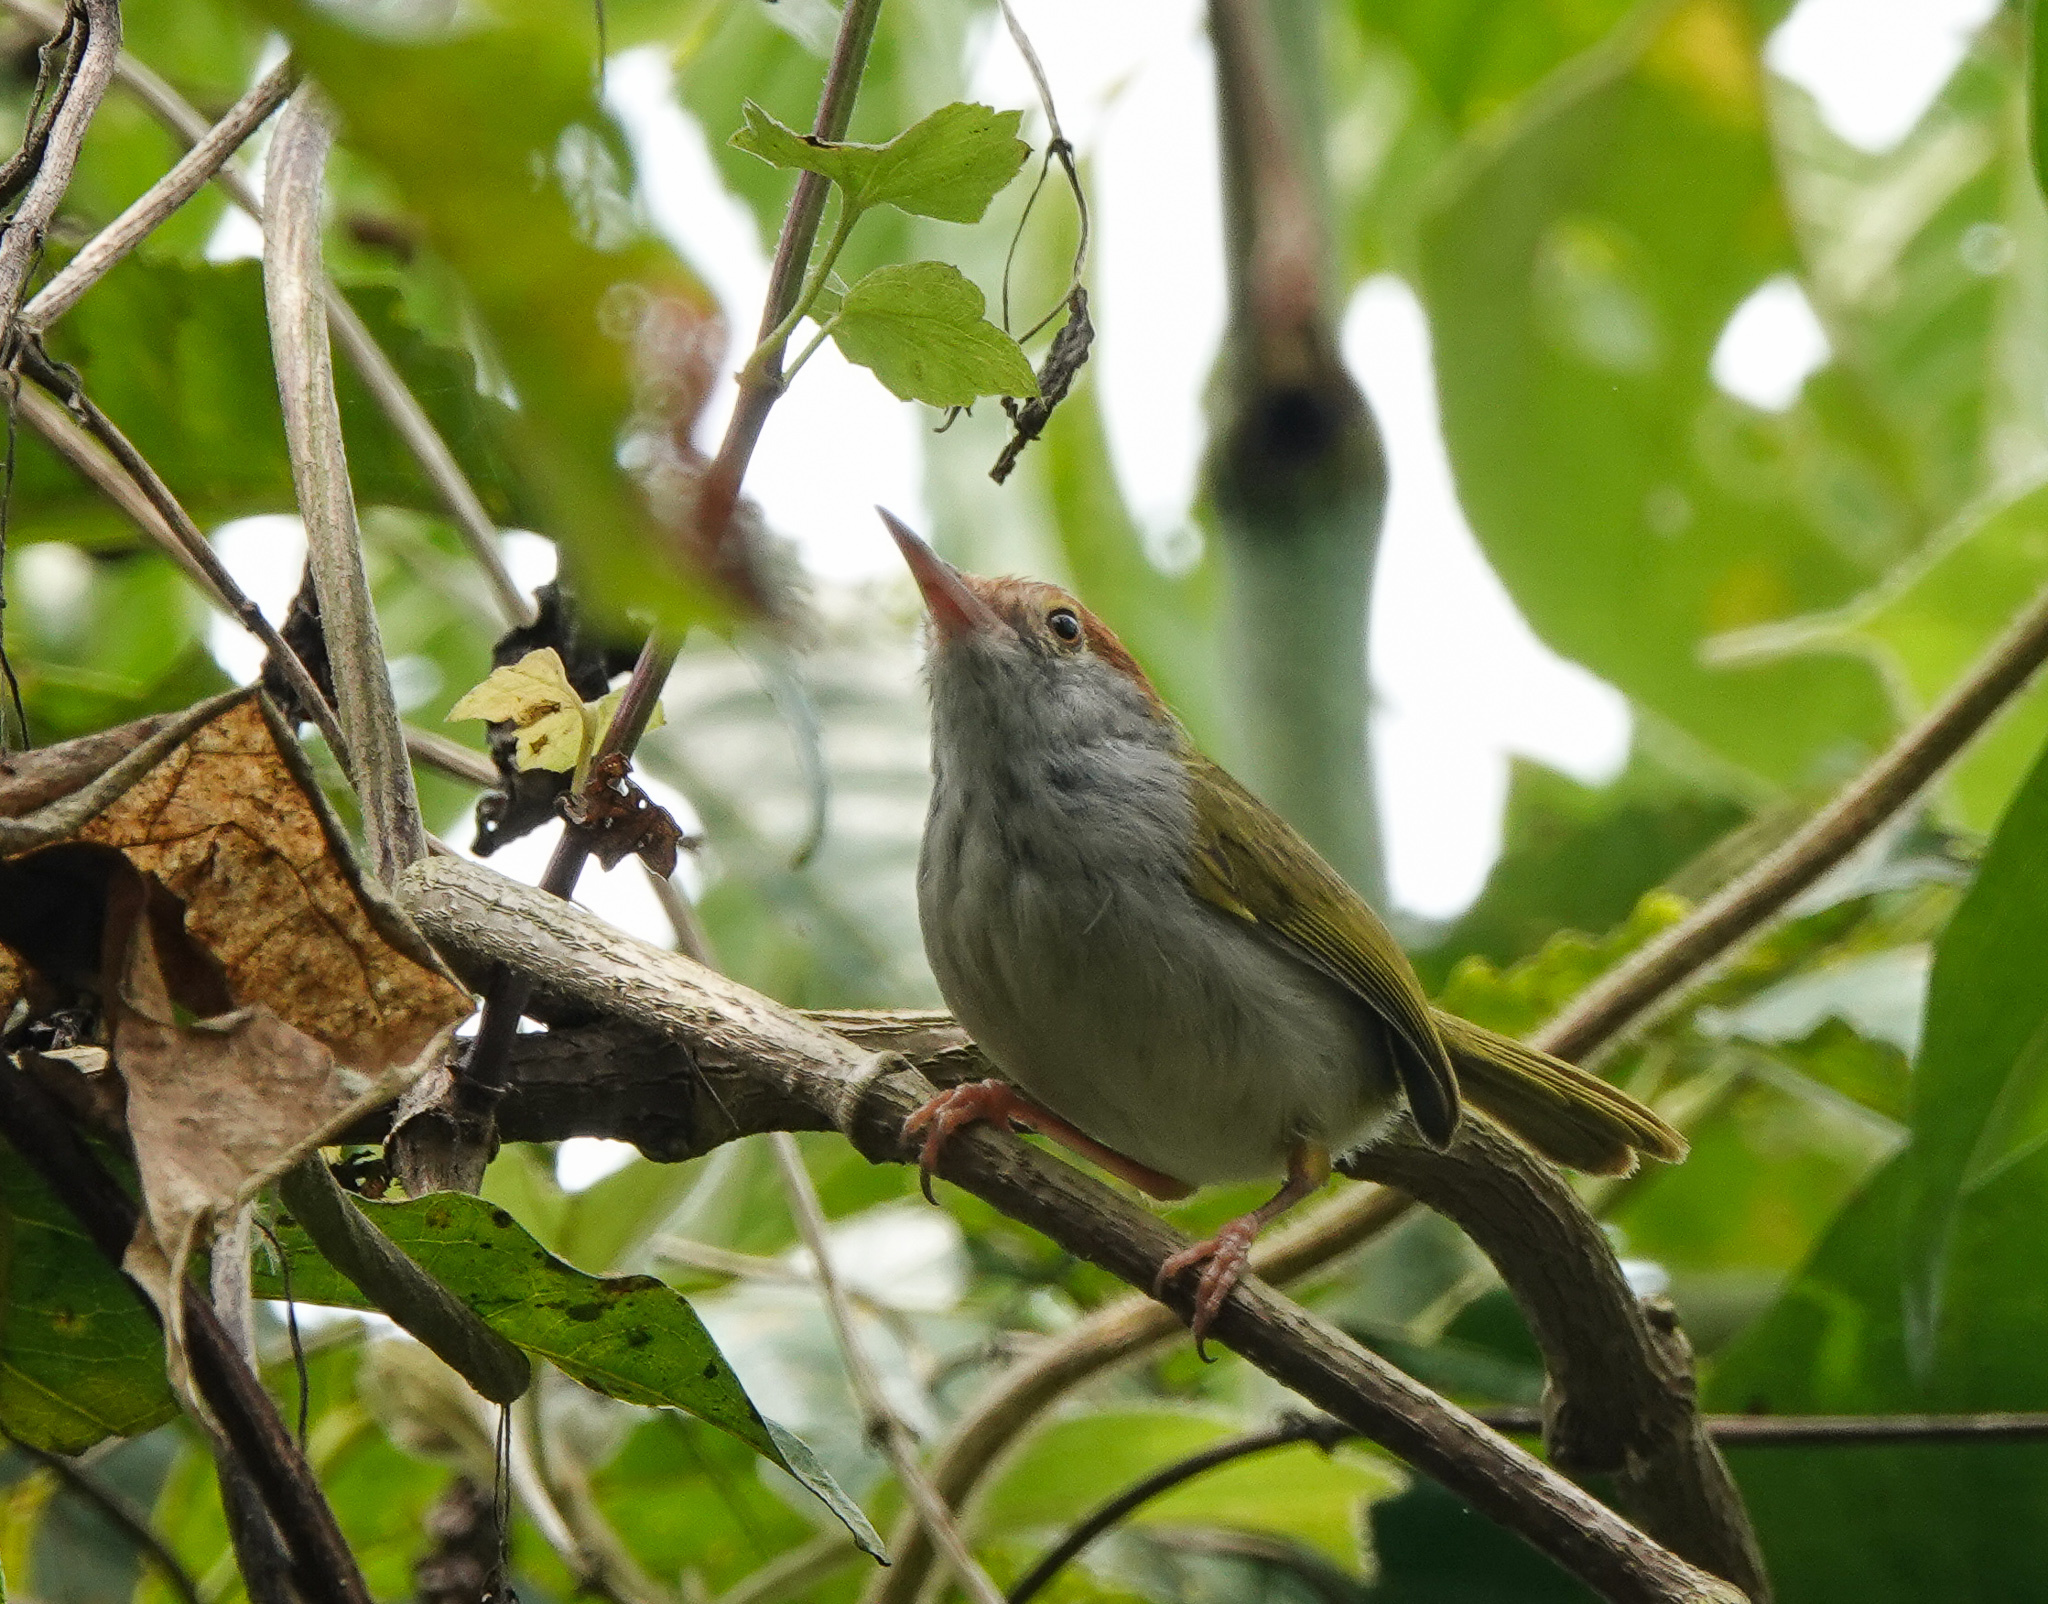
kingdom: Animalia
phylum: Chordata
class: Aves
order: Passeriformes
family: Cisticolidae
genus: Orthotomus
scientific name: Orthotomus atrogularis
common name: Dark-necked tailorbird
